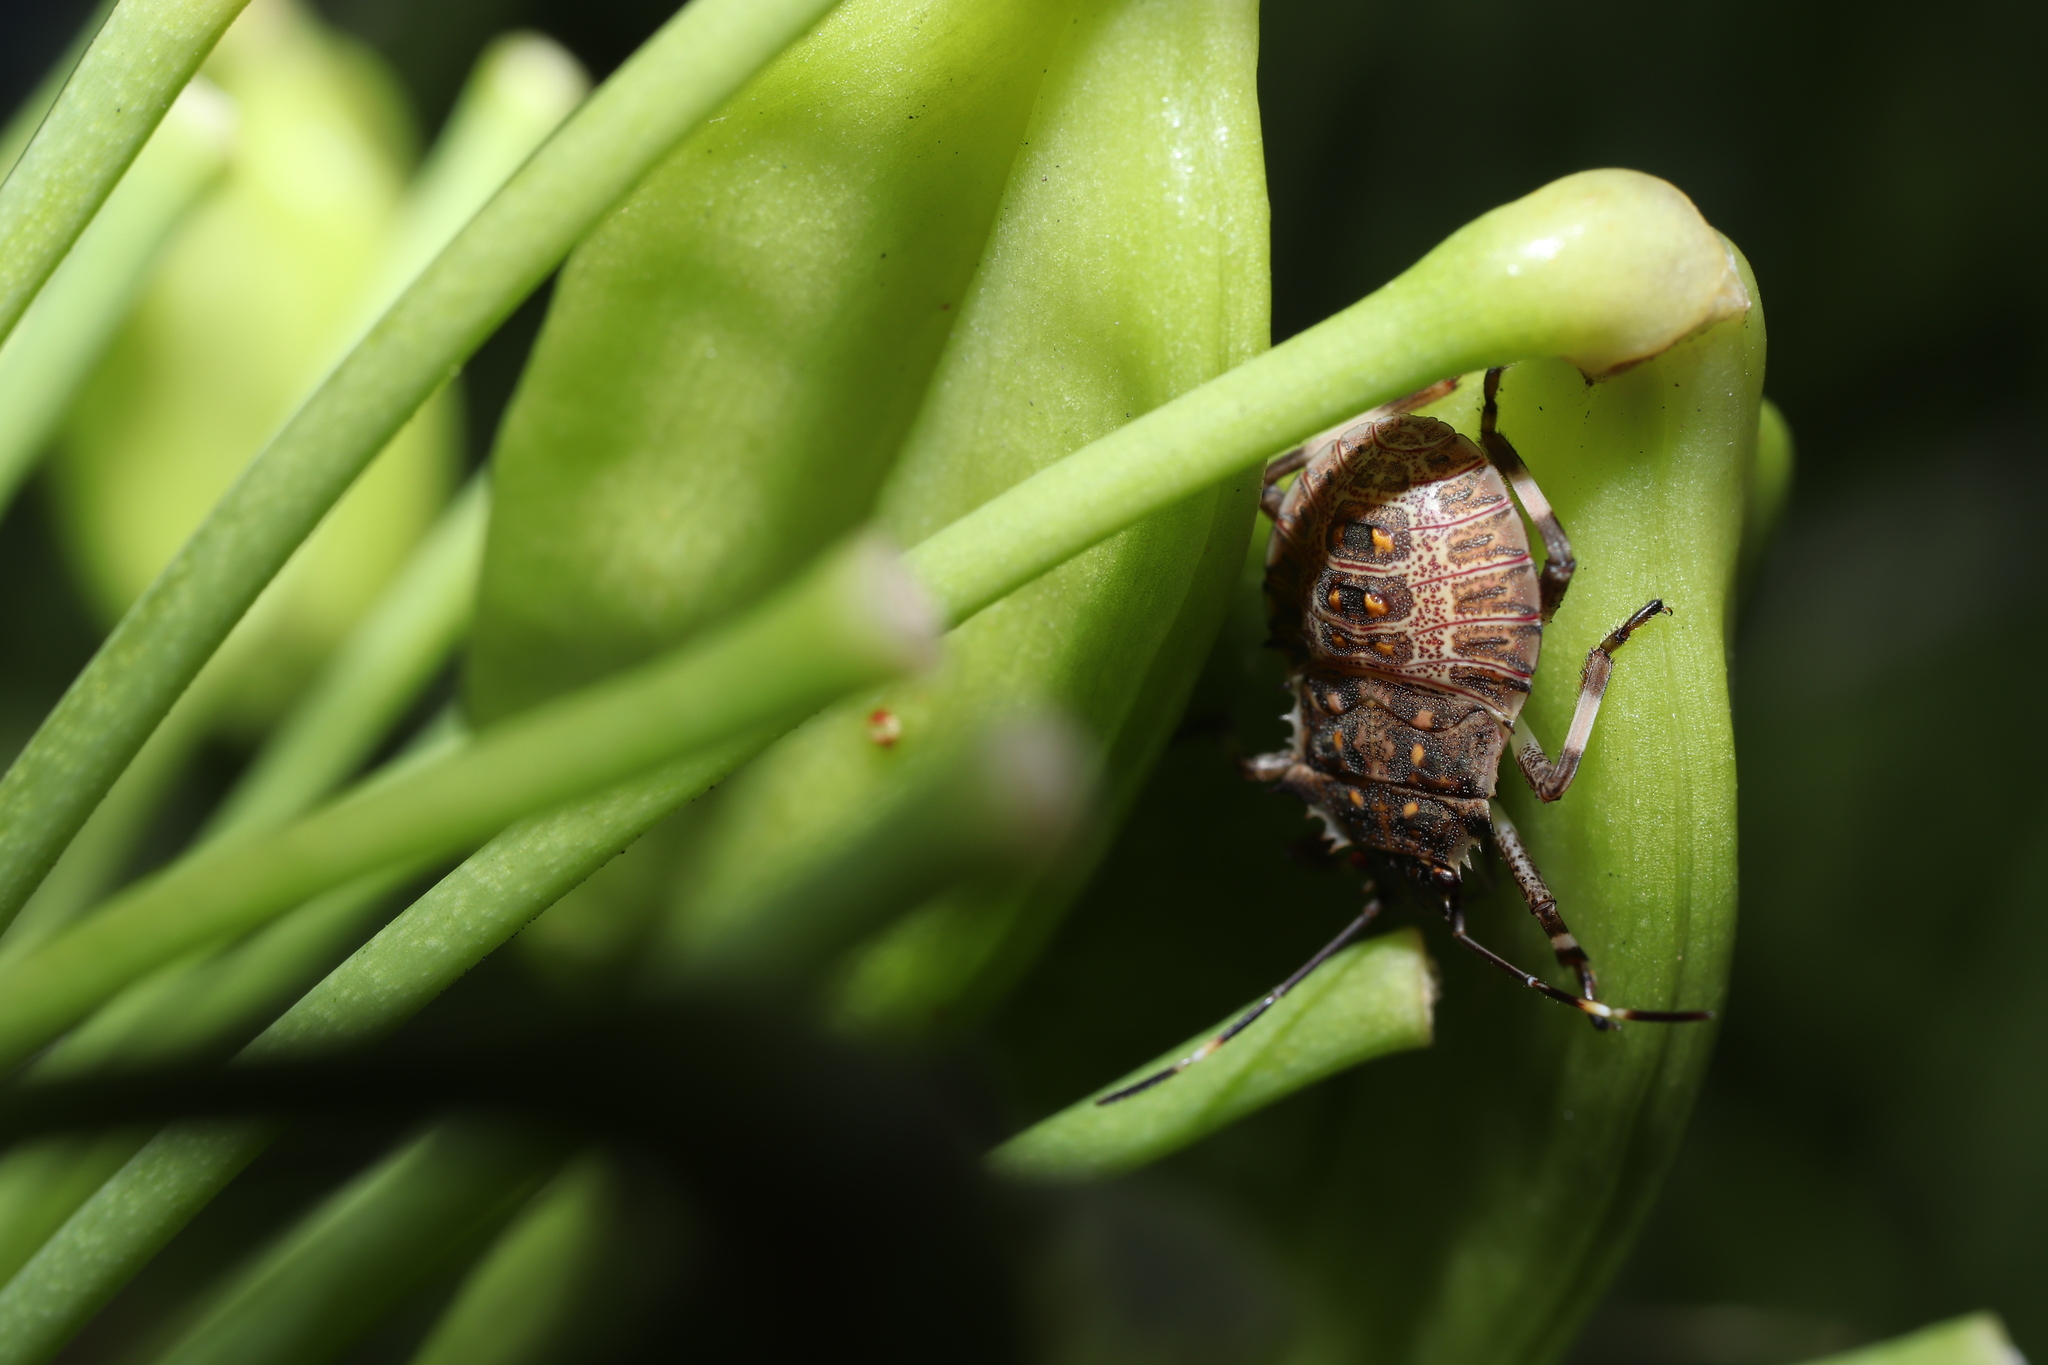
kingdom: Animalia
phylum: Arthropoda
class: Insecta
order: Hemiptera
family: Pentatomidae
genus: Halyomorpha
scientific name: Halyomorpha halys
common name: Brown marmorated stink bug
